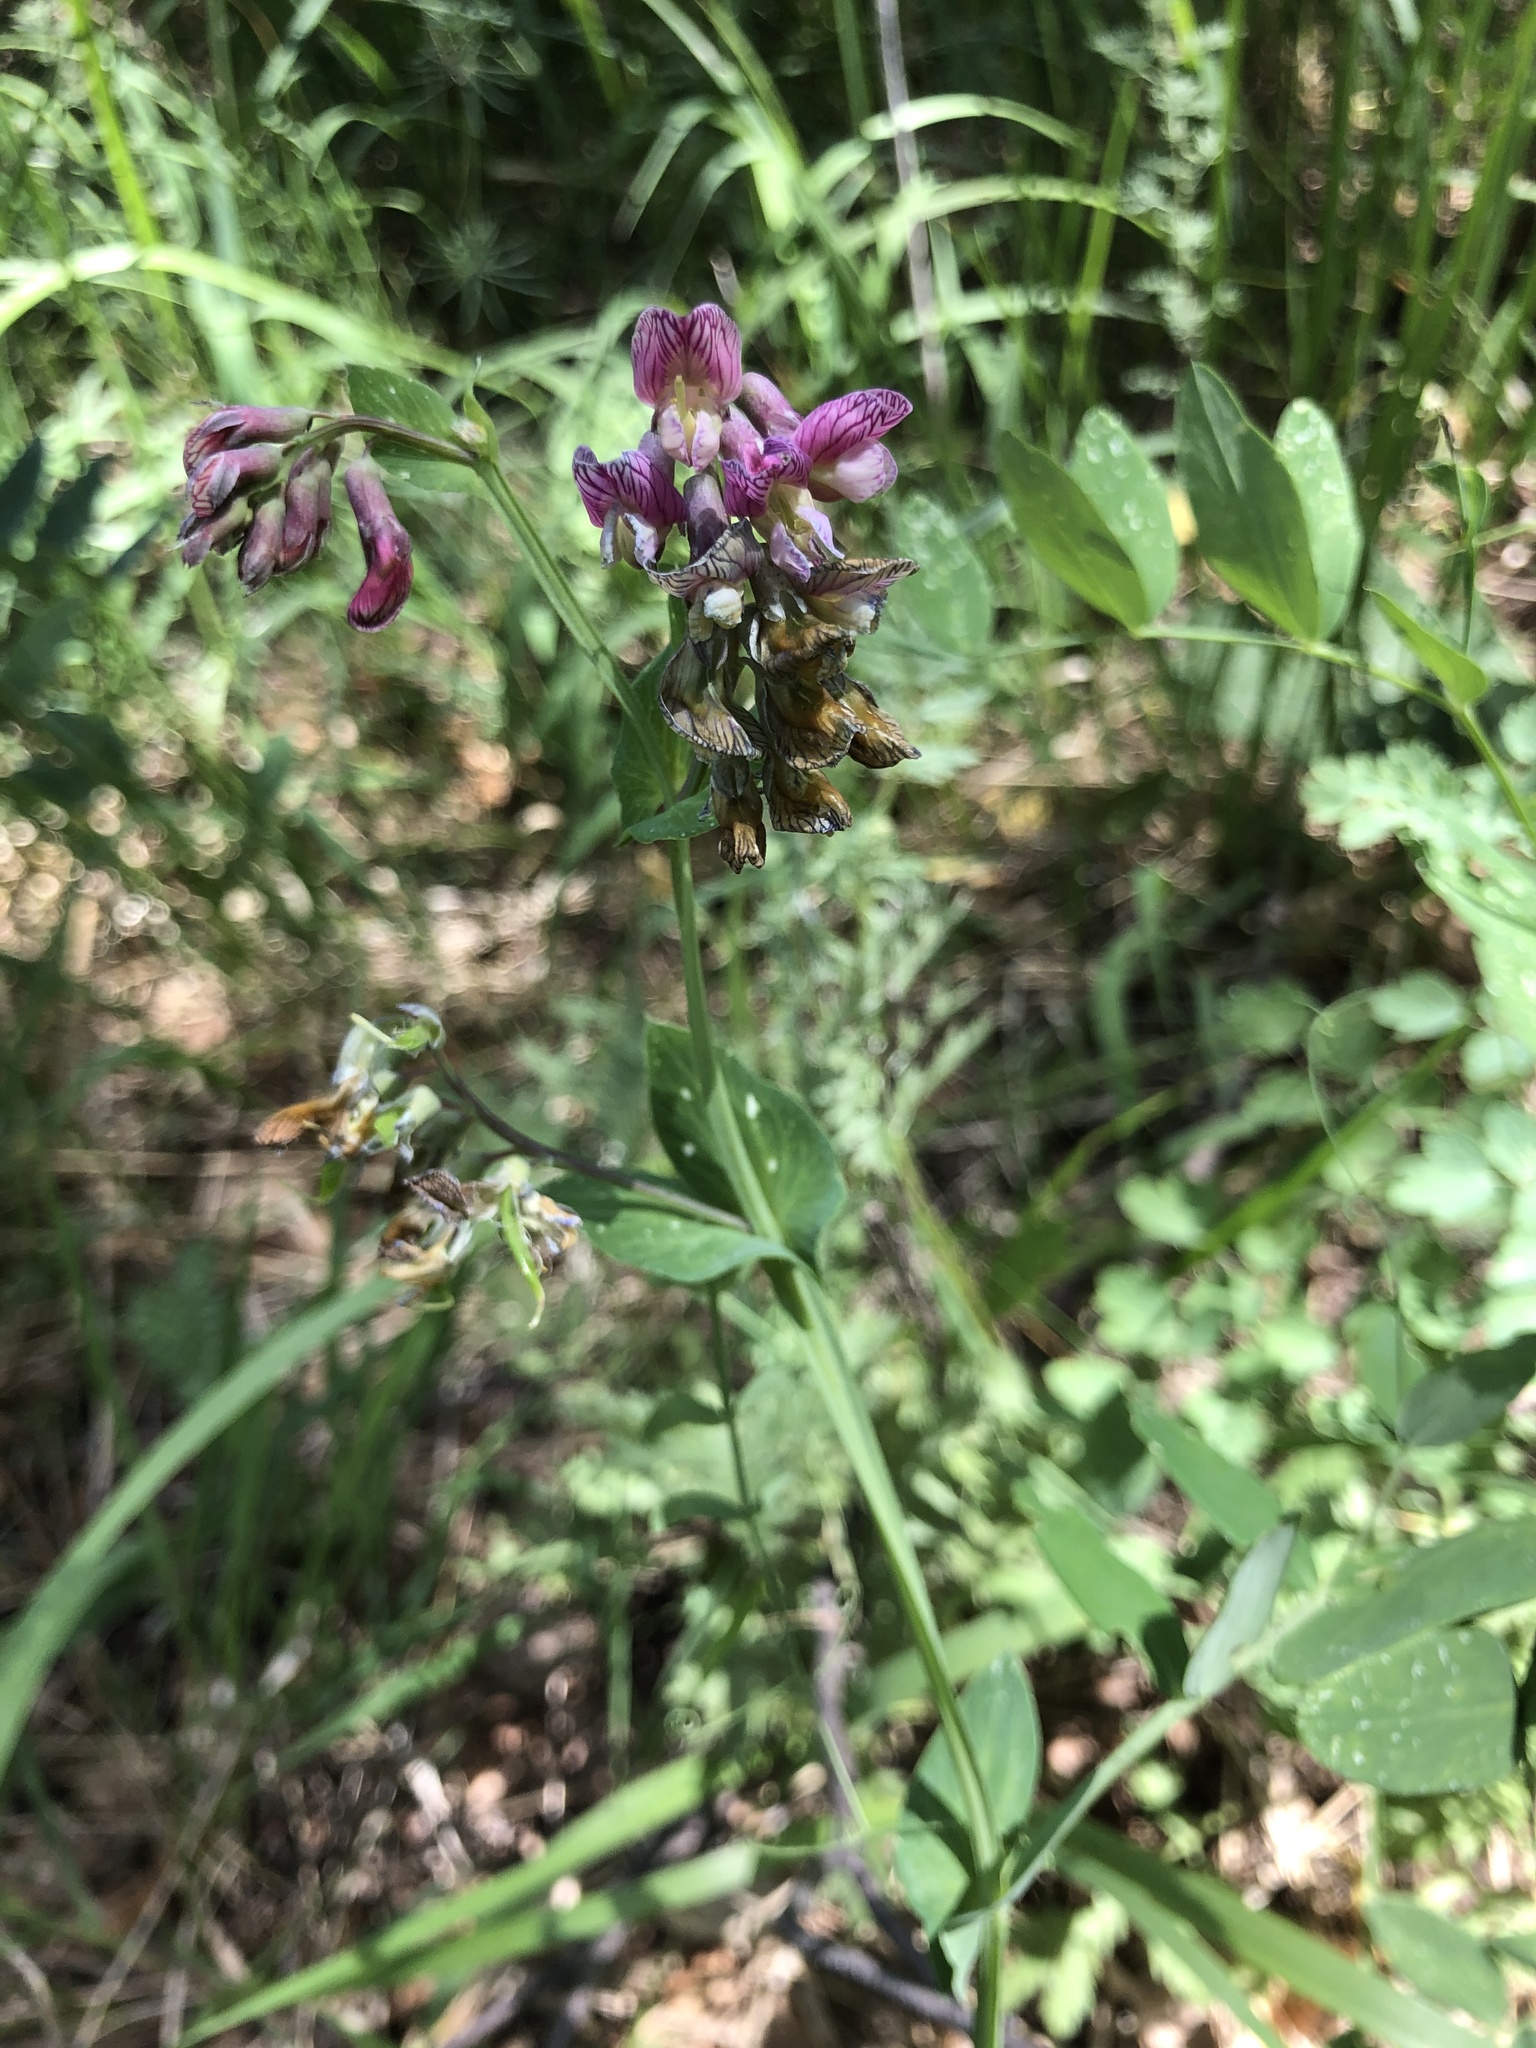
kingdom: Plantae
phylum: Tracheophyta
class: Magnoliopsida
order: Fabales
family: Fabaceae
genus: Lathyrus
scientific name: Lathyrus pisiformis
